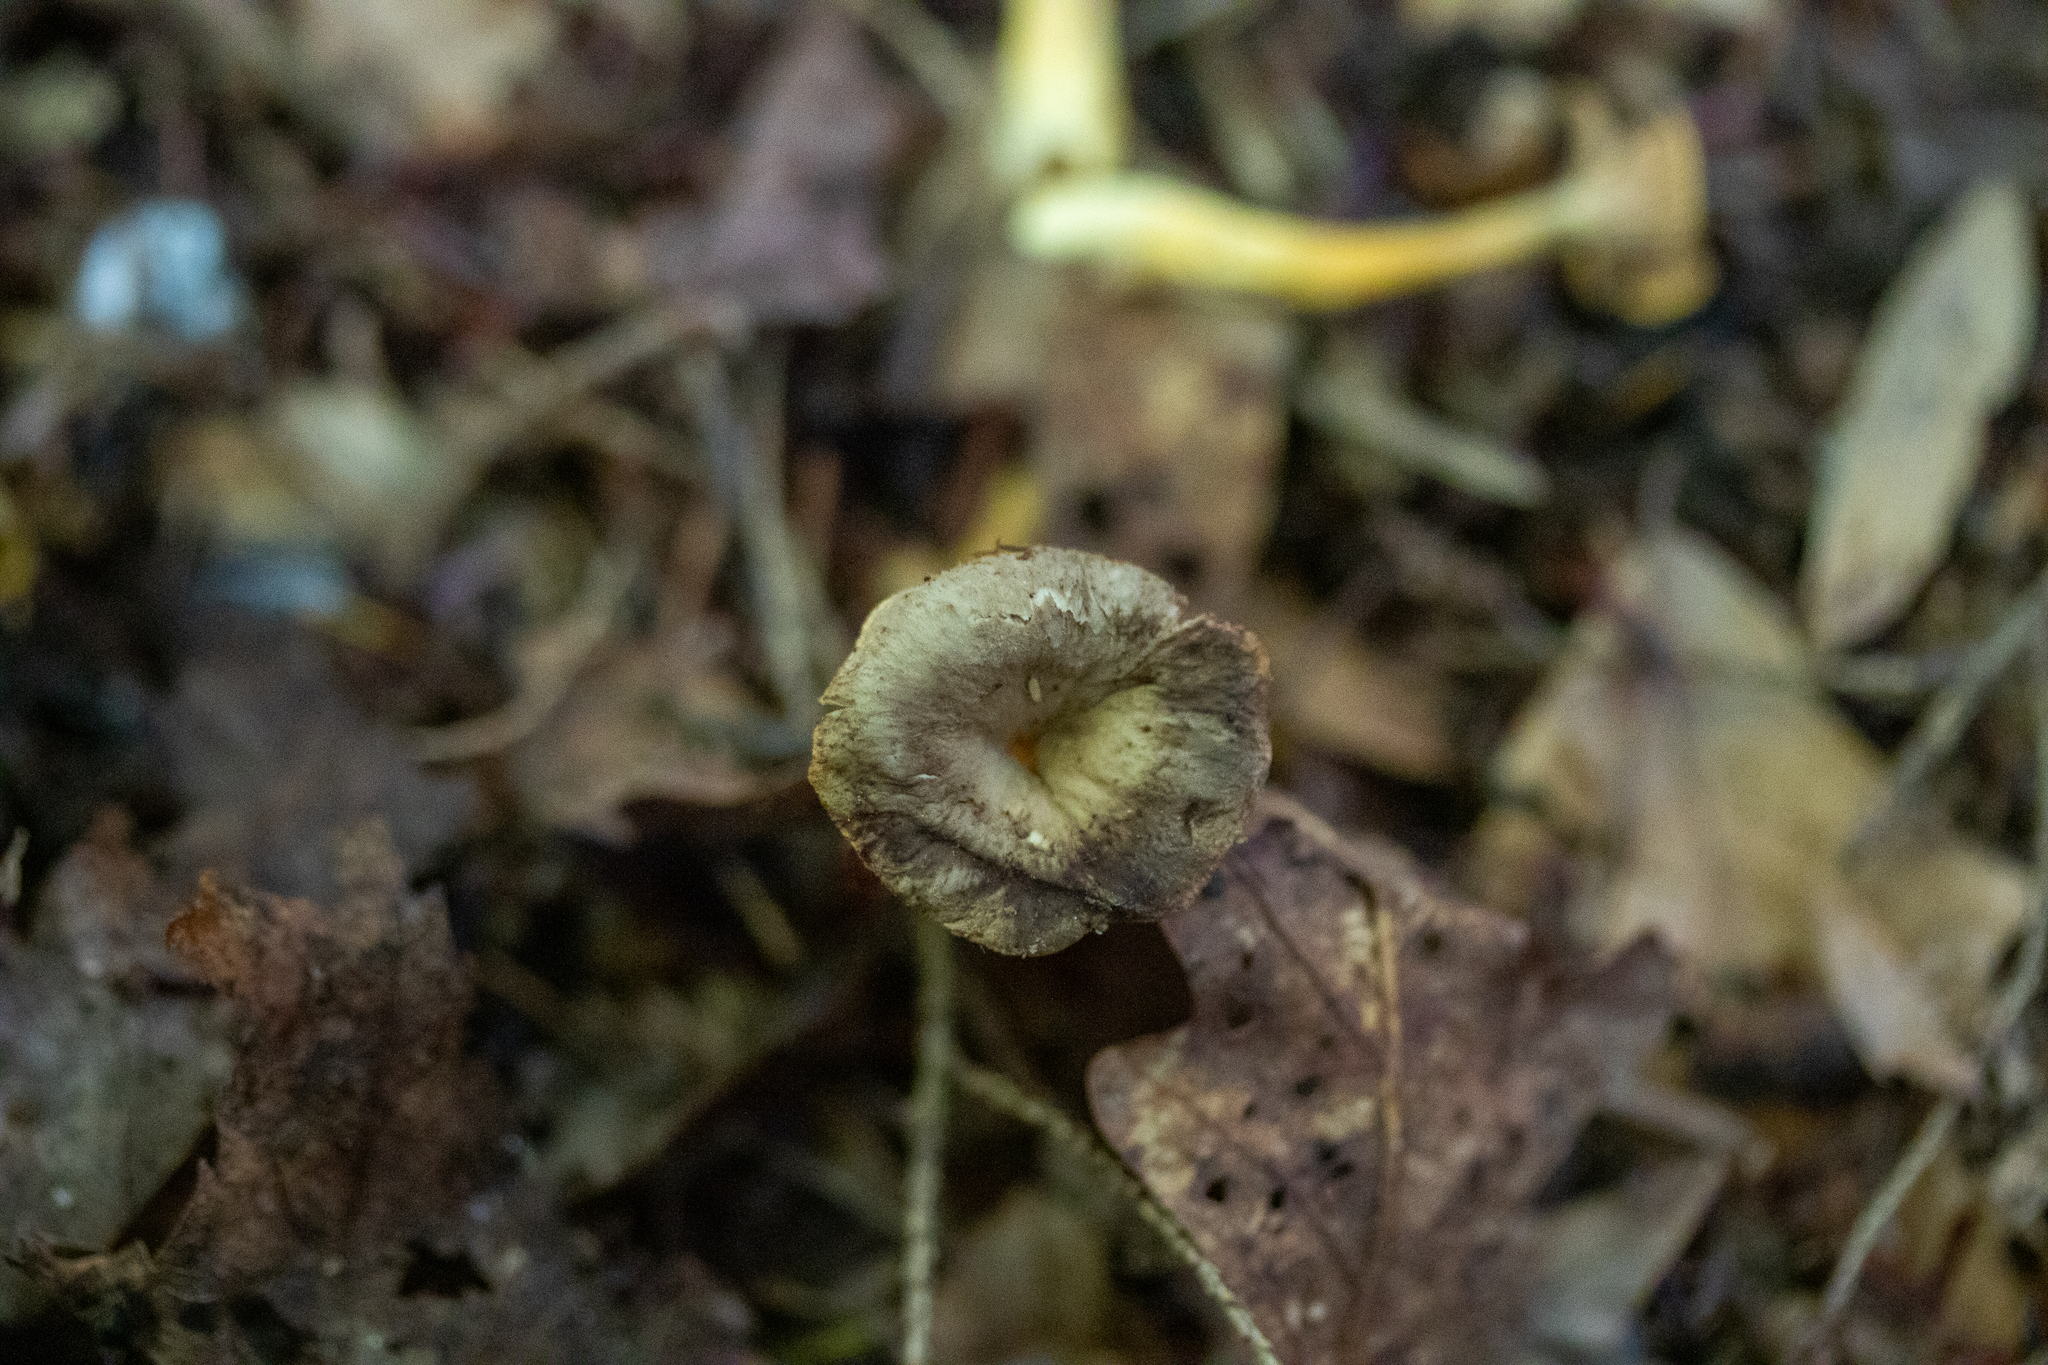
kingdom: Fungi
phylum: Basidiomycota
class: Agaricomycetes
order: Cantharellales
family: Hydnaceae
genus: Craterellus
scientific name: Craterellus tubaeformis
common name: Yellowfoot
